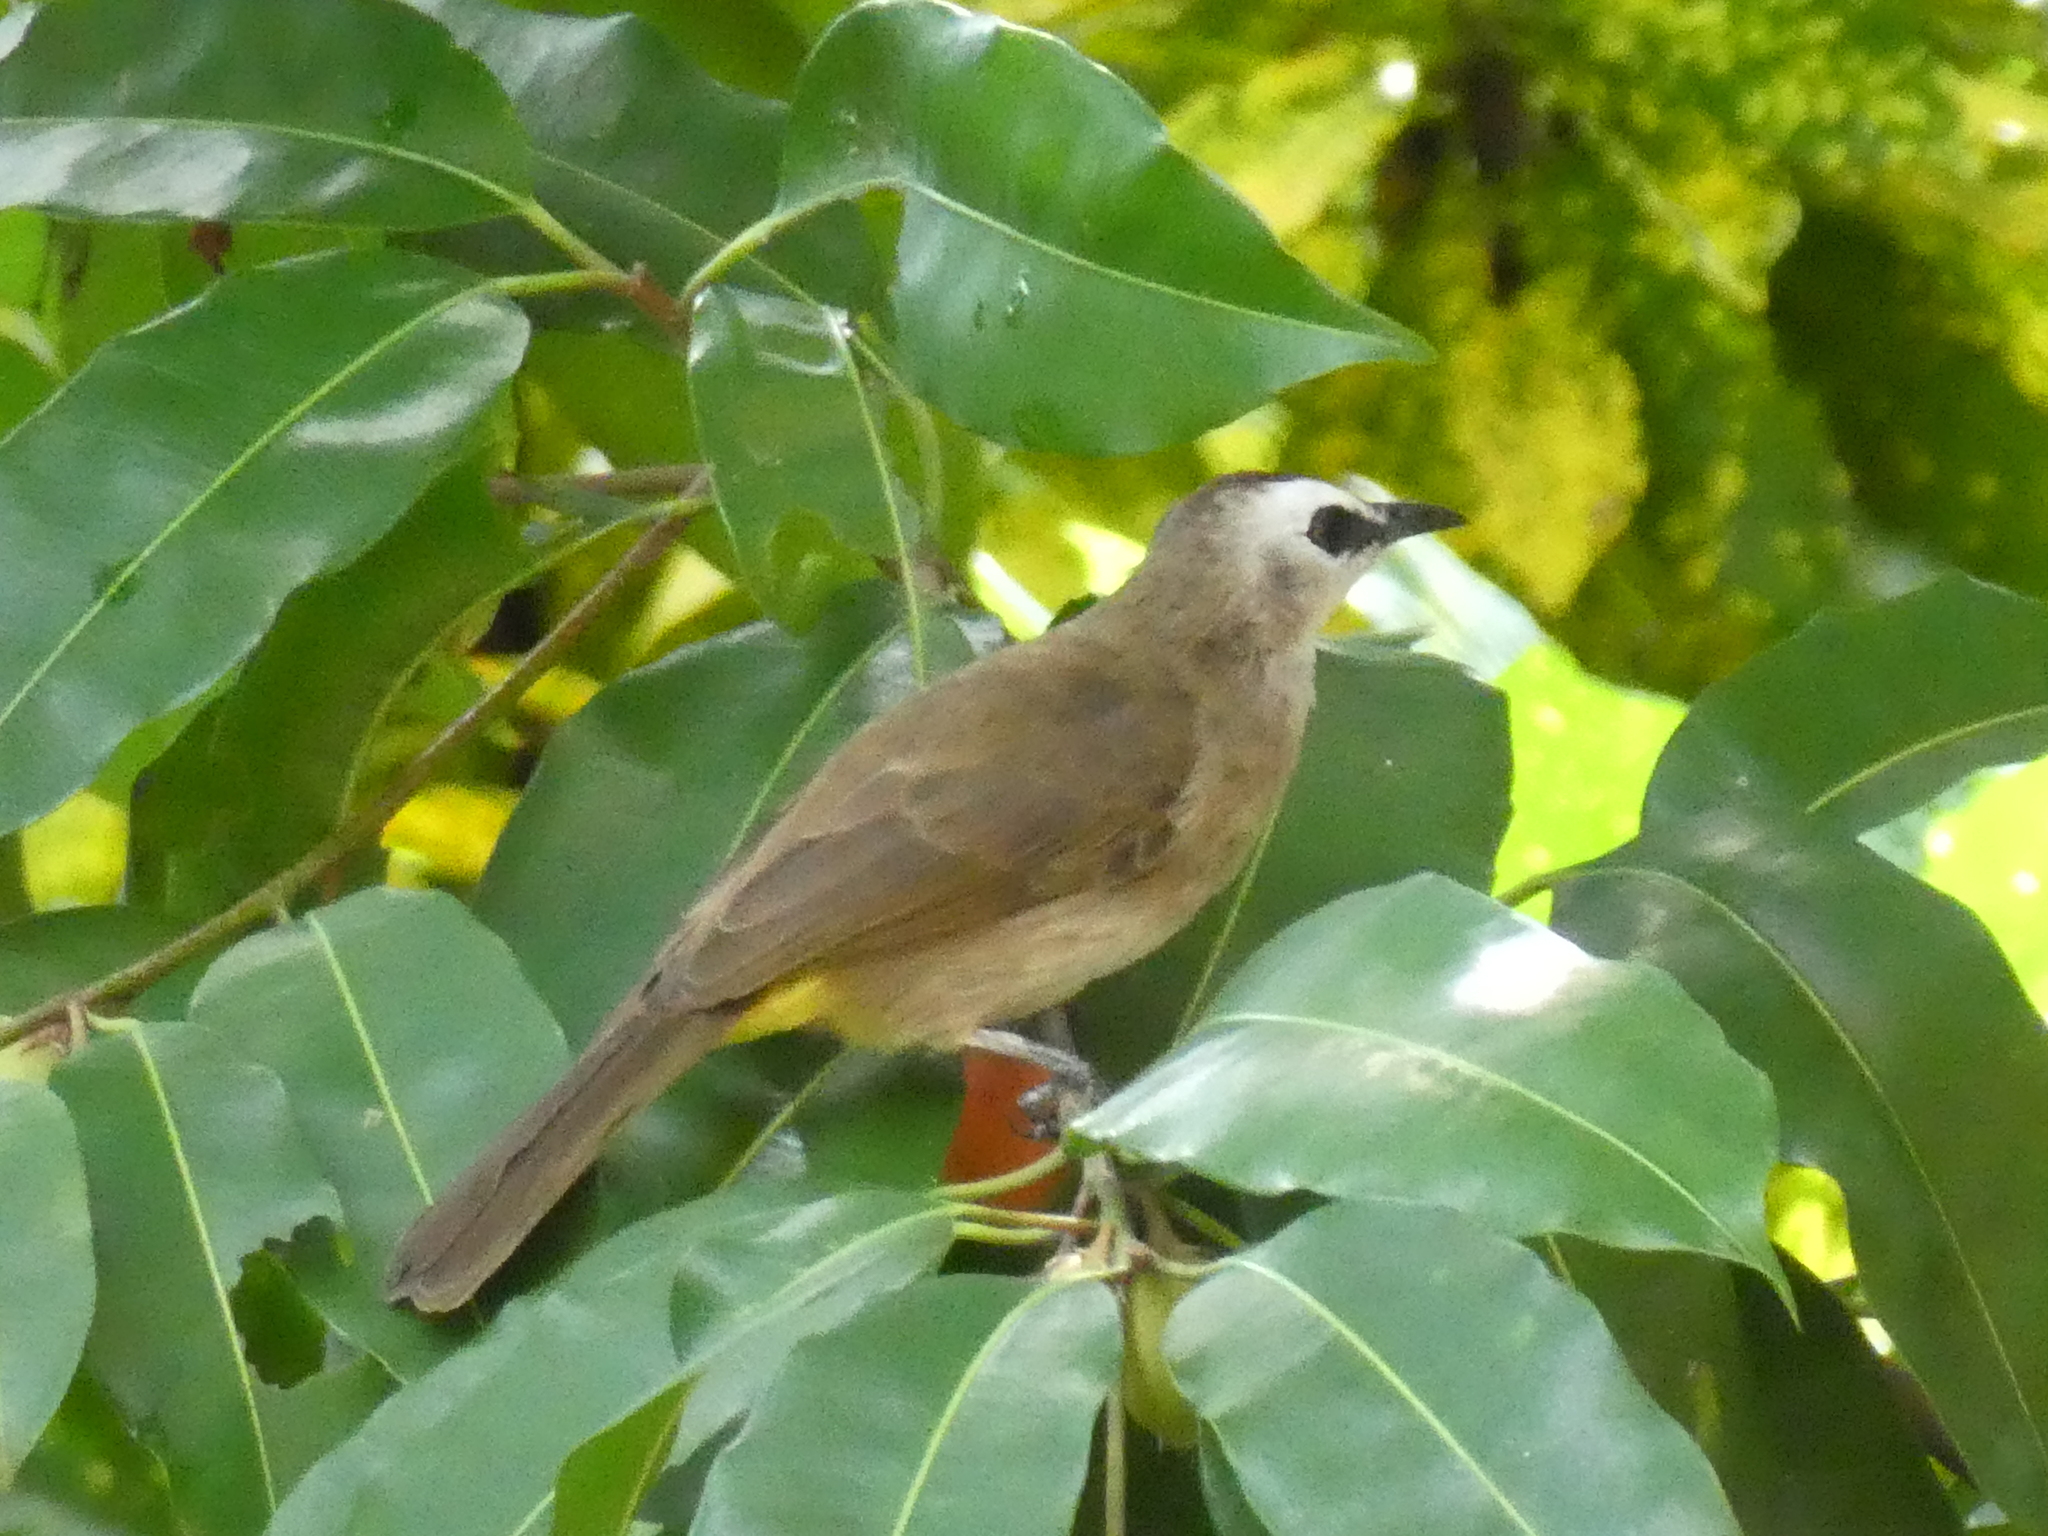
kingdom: Animalia
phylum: Chordata
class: Aves
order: Passeriformes
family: Pycnonotidae
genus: Pycnonotus
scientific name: Pycnonotus goiavier
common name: Yellow-vented bulbul
